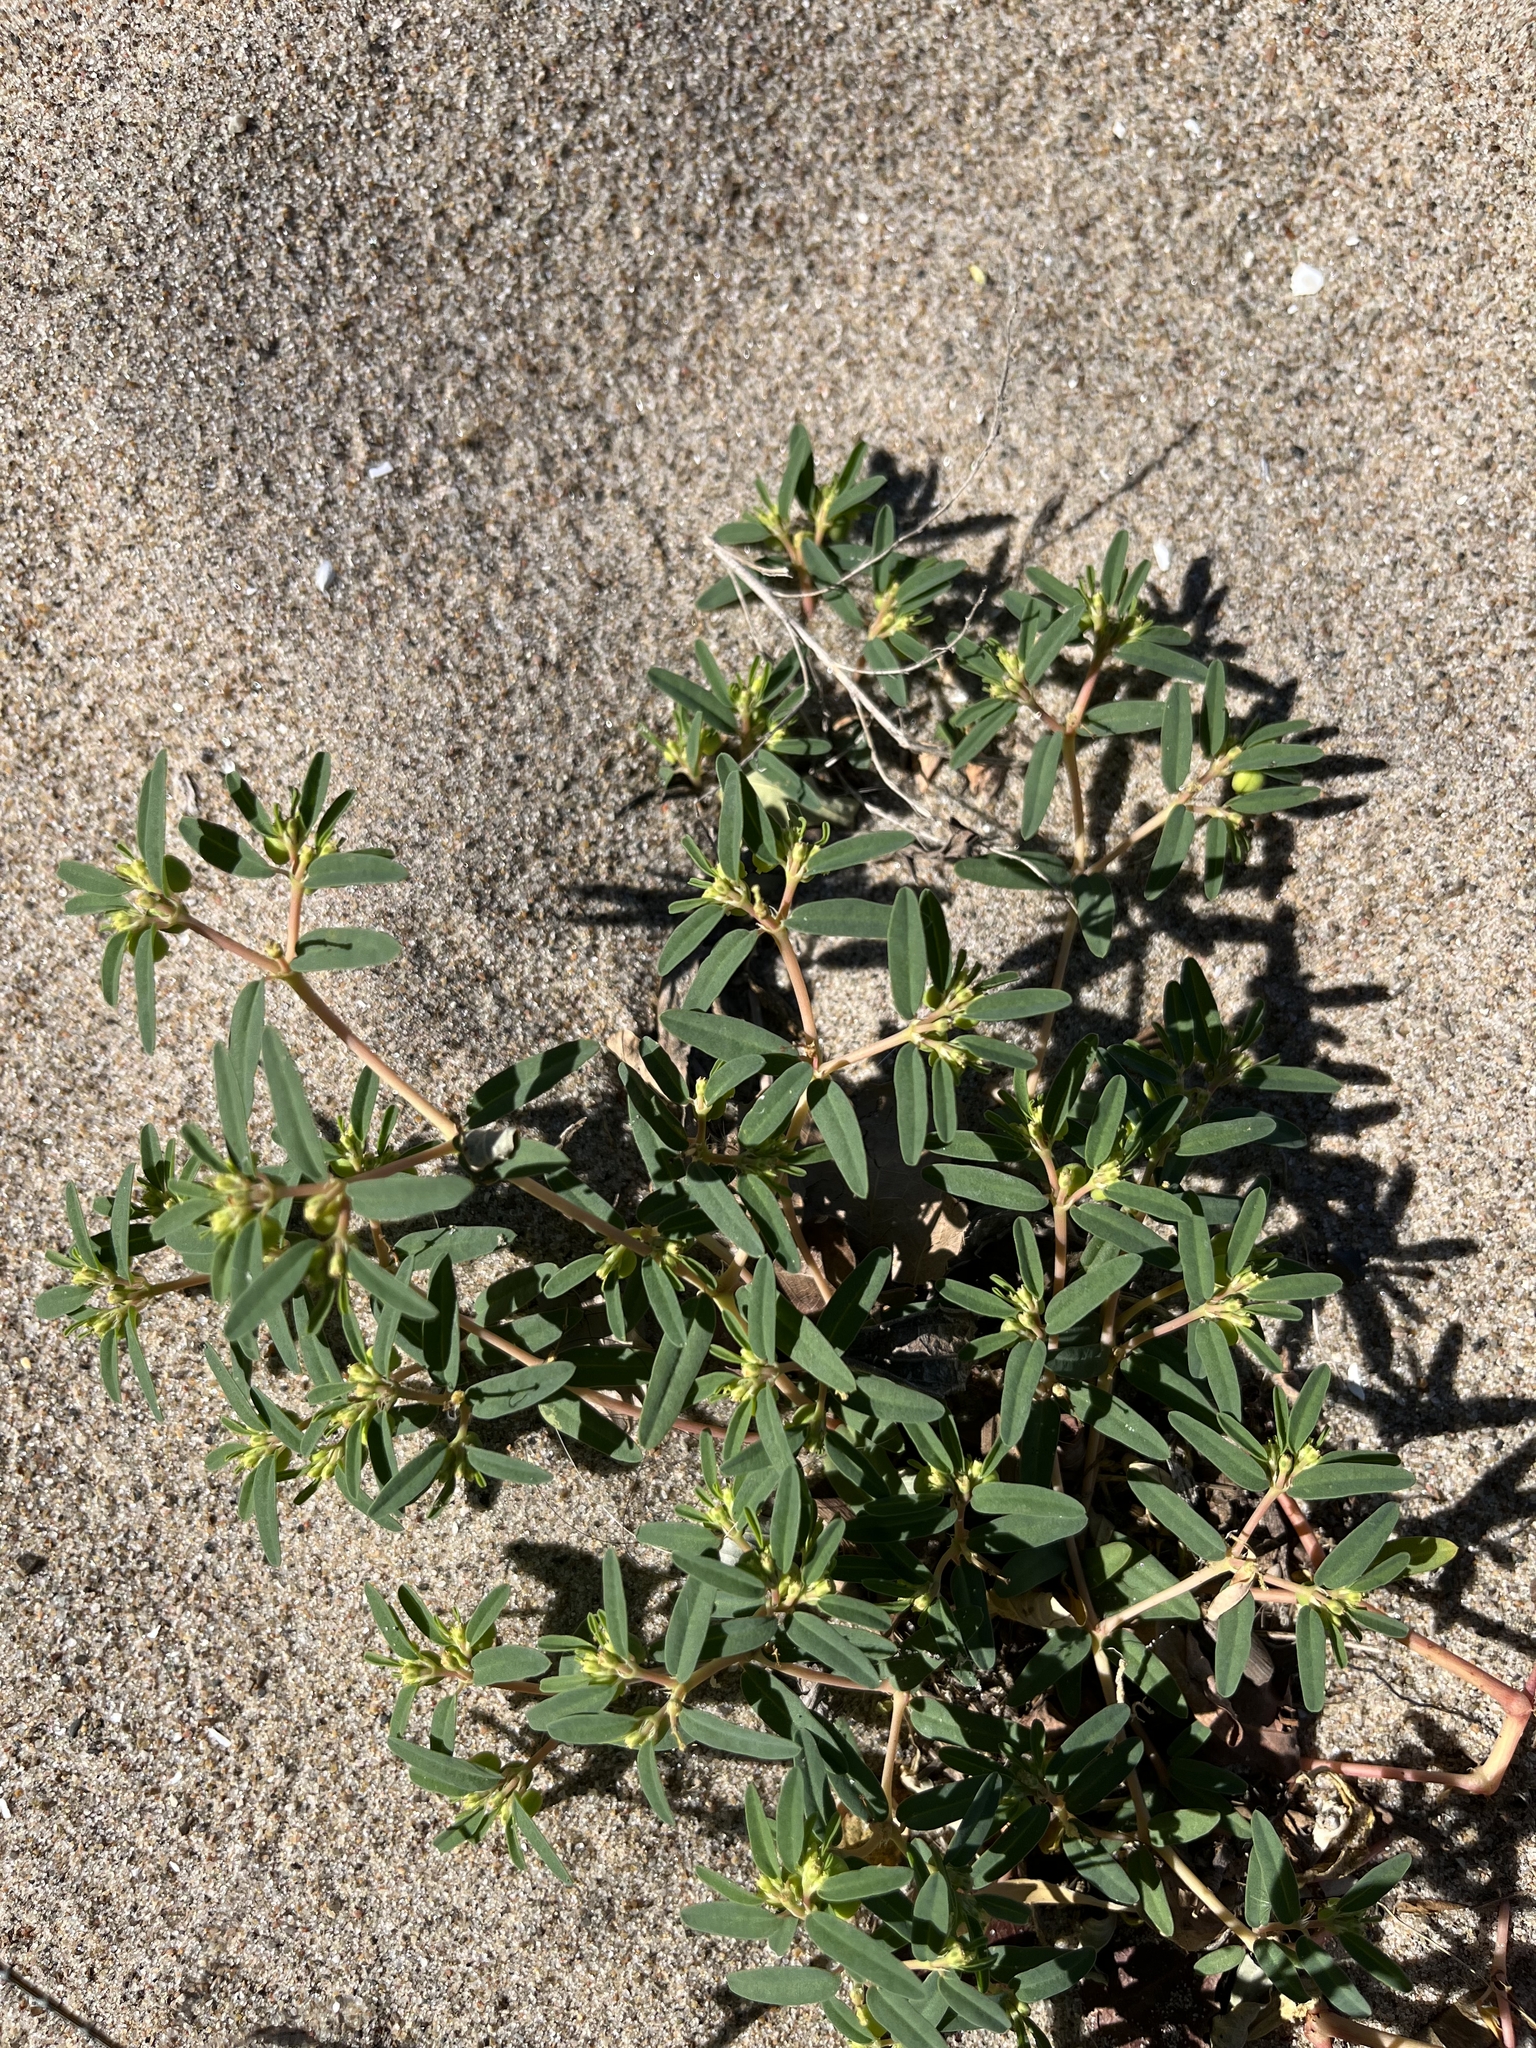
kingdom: Plantae
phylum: Tracheophyta
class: Magnoliopsida
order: Malpighiales
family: Euphorbiaceae
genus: Euphorbia
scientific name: Euphorbia polygonifolia
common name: Knotweed spurge
